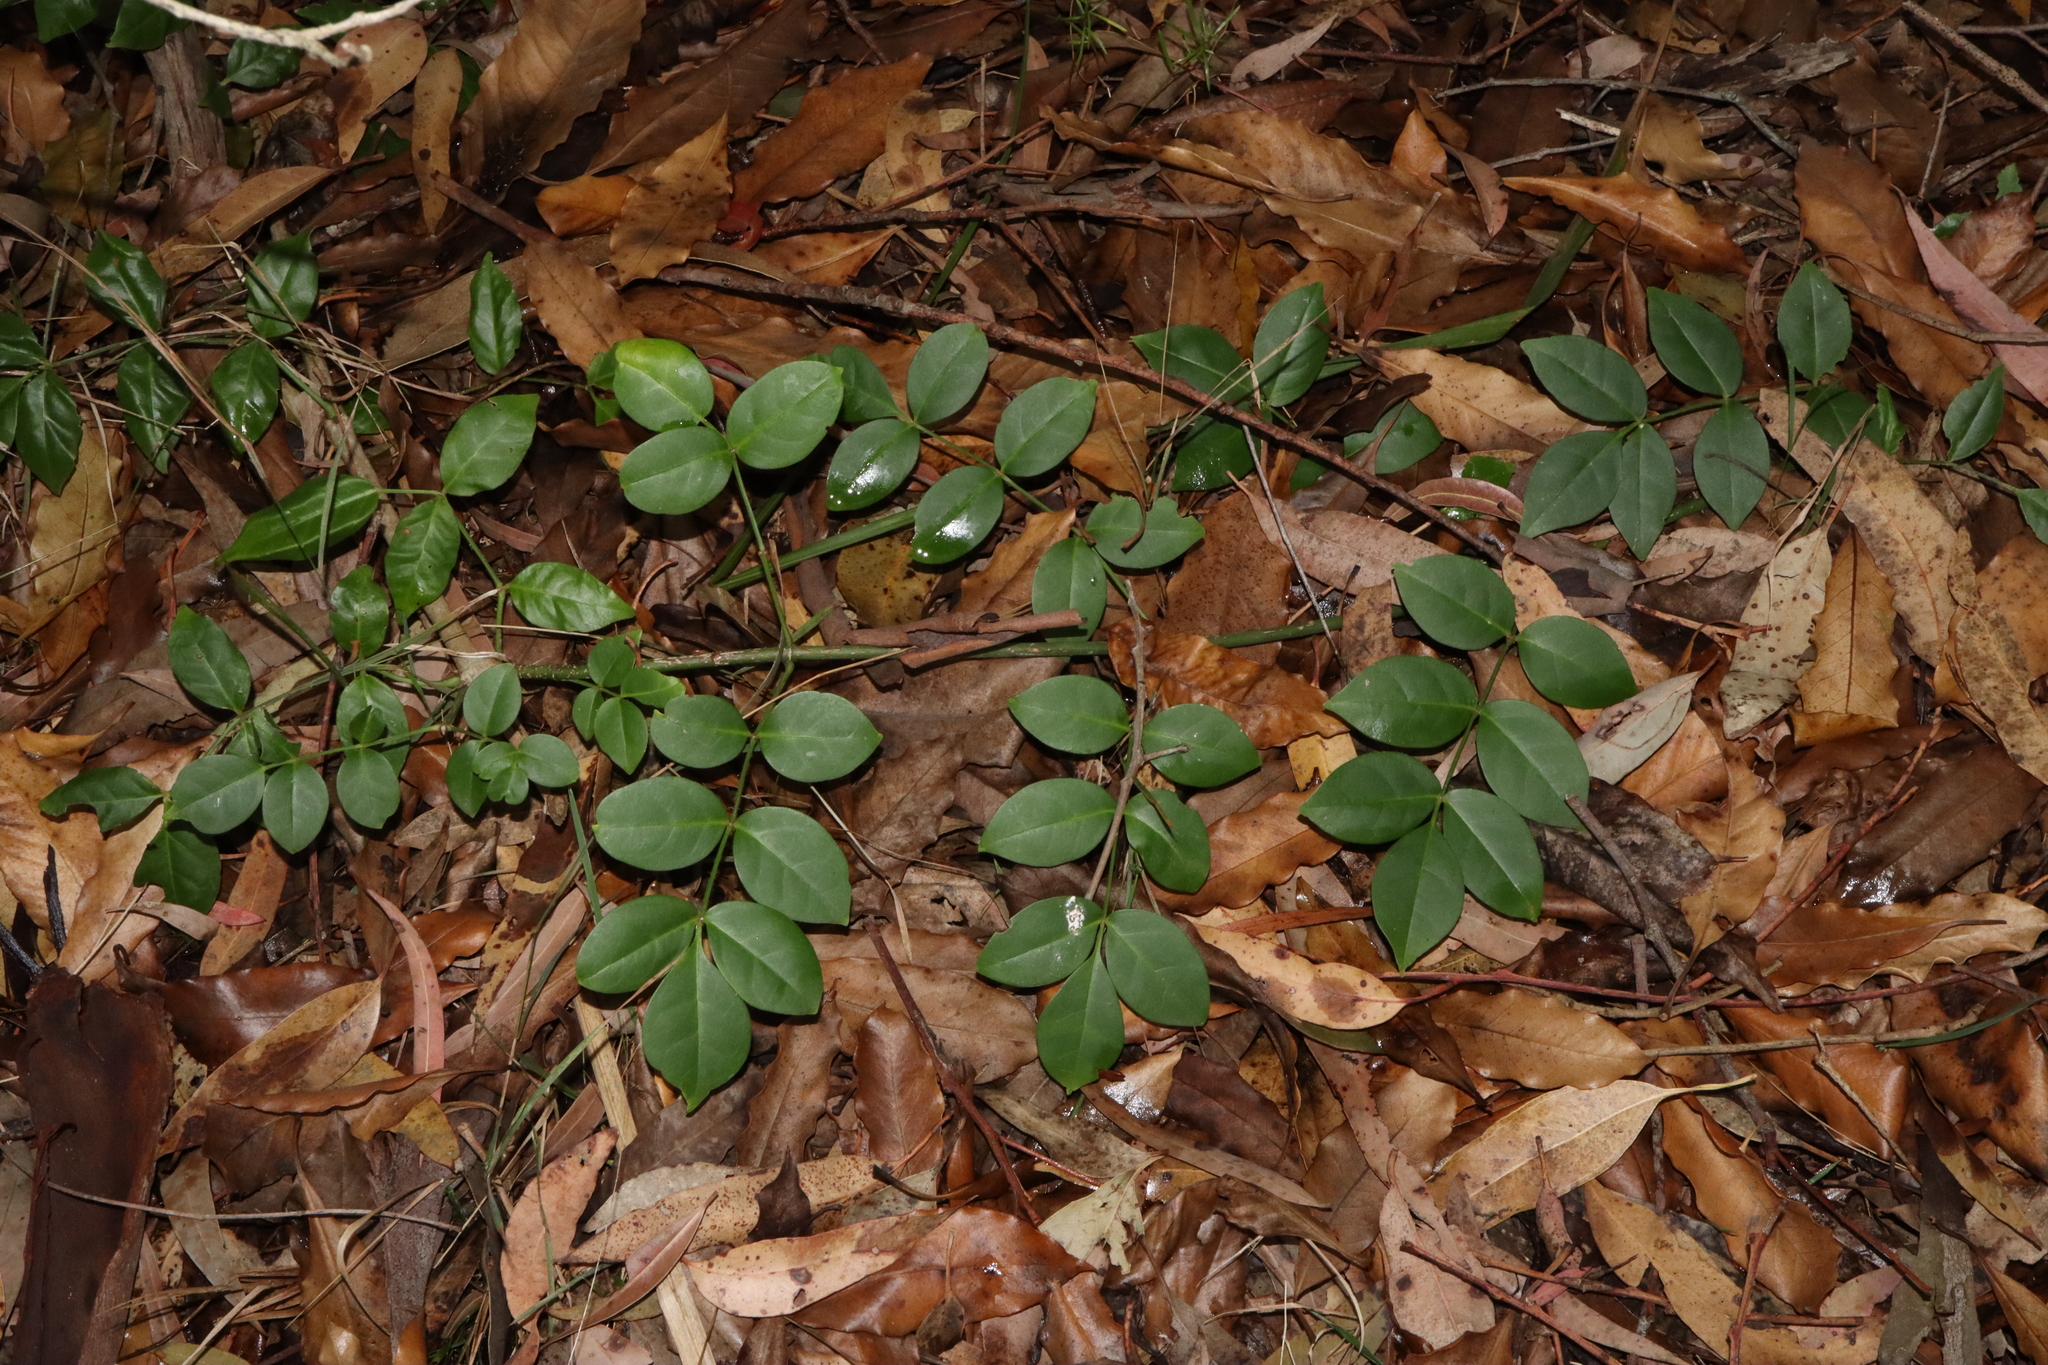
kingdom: Plantae
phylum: Tracheophyta
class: Magnoliopsida
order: Lamiales
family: Bignoniaceae
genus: Pandorea
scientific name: Pandorea jasminoides
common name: Bowerplant
